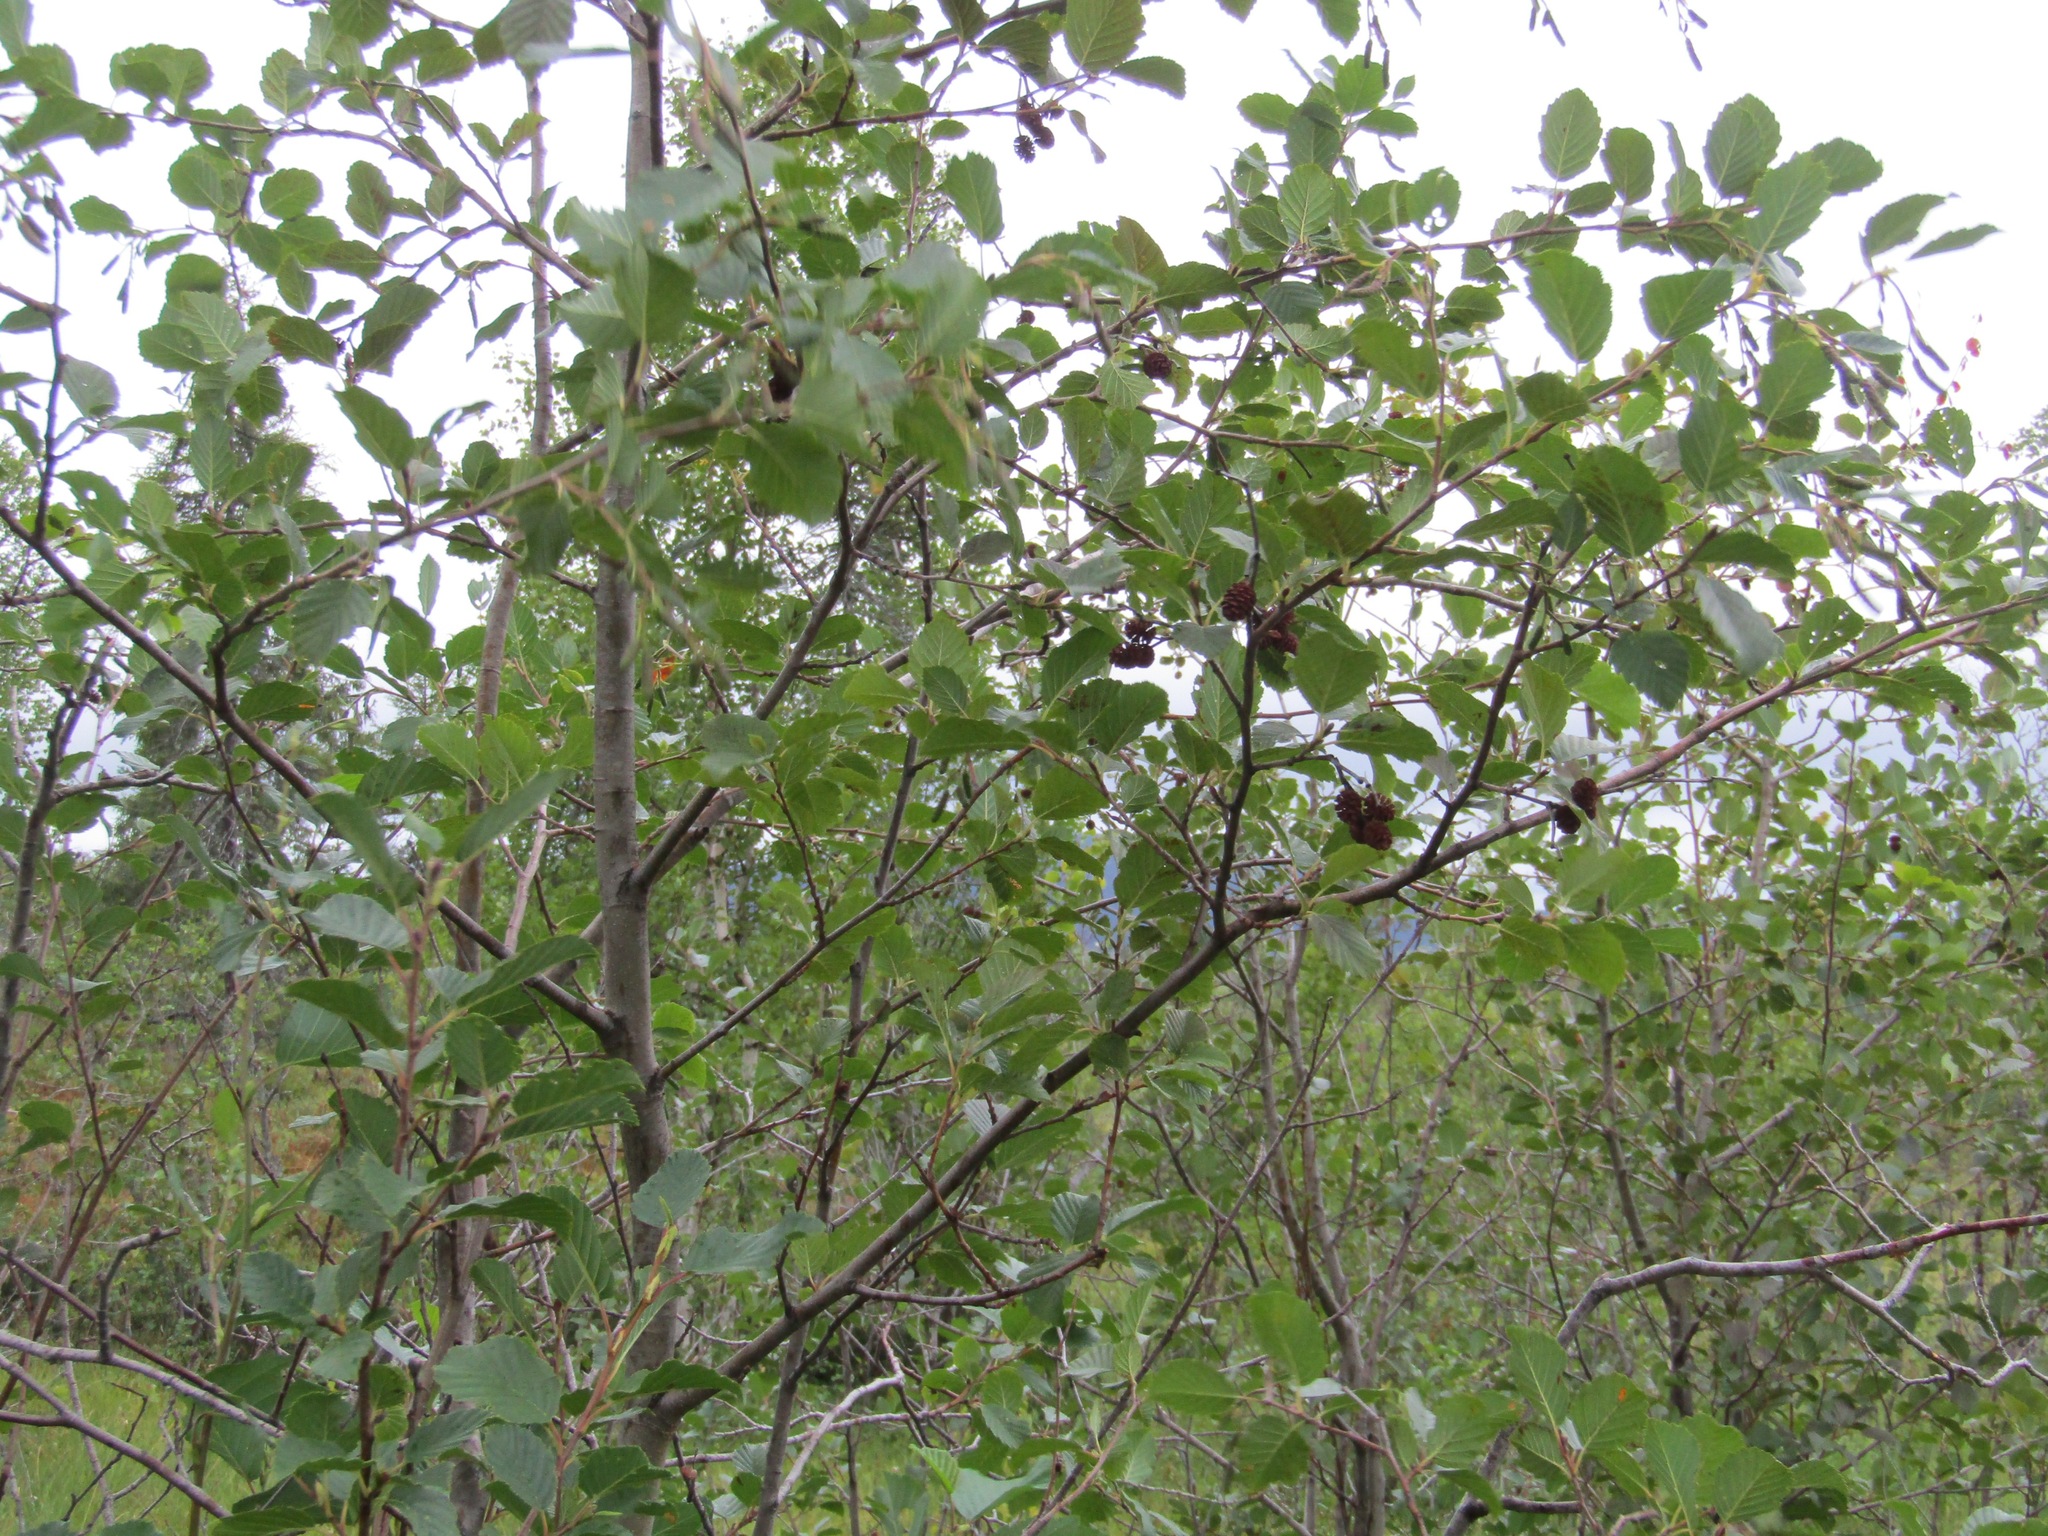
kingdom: Plantae
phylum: Tracheophyta
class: Magnoliopsida
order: Fagales
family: Betulaceae
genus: Alnus
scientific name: Alnus incana
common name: Grey alder
